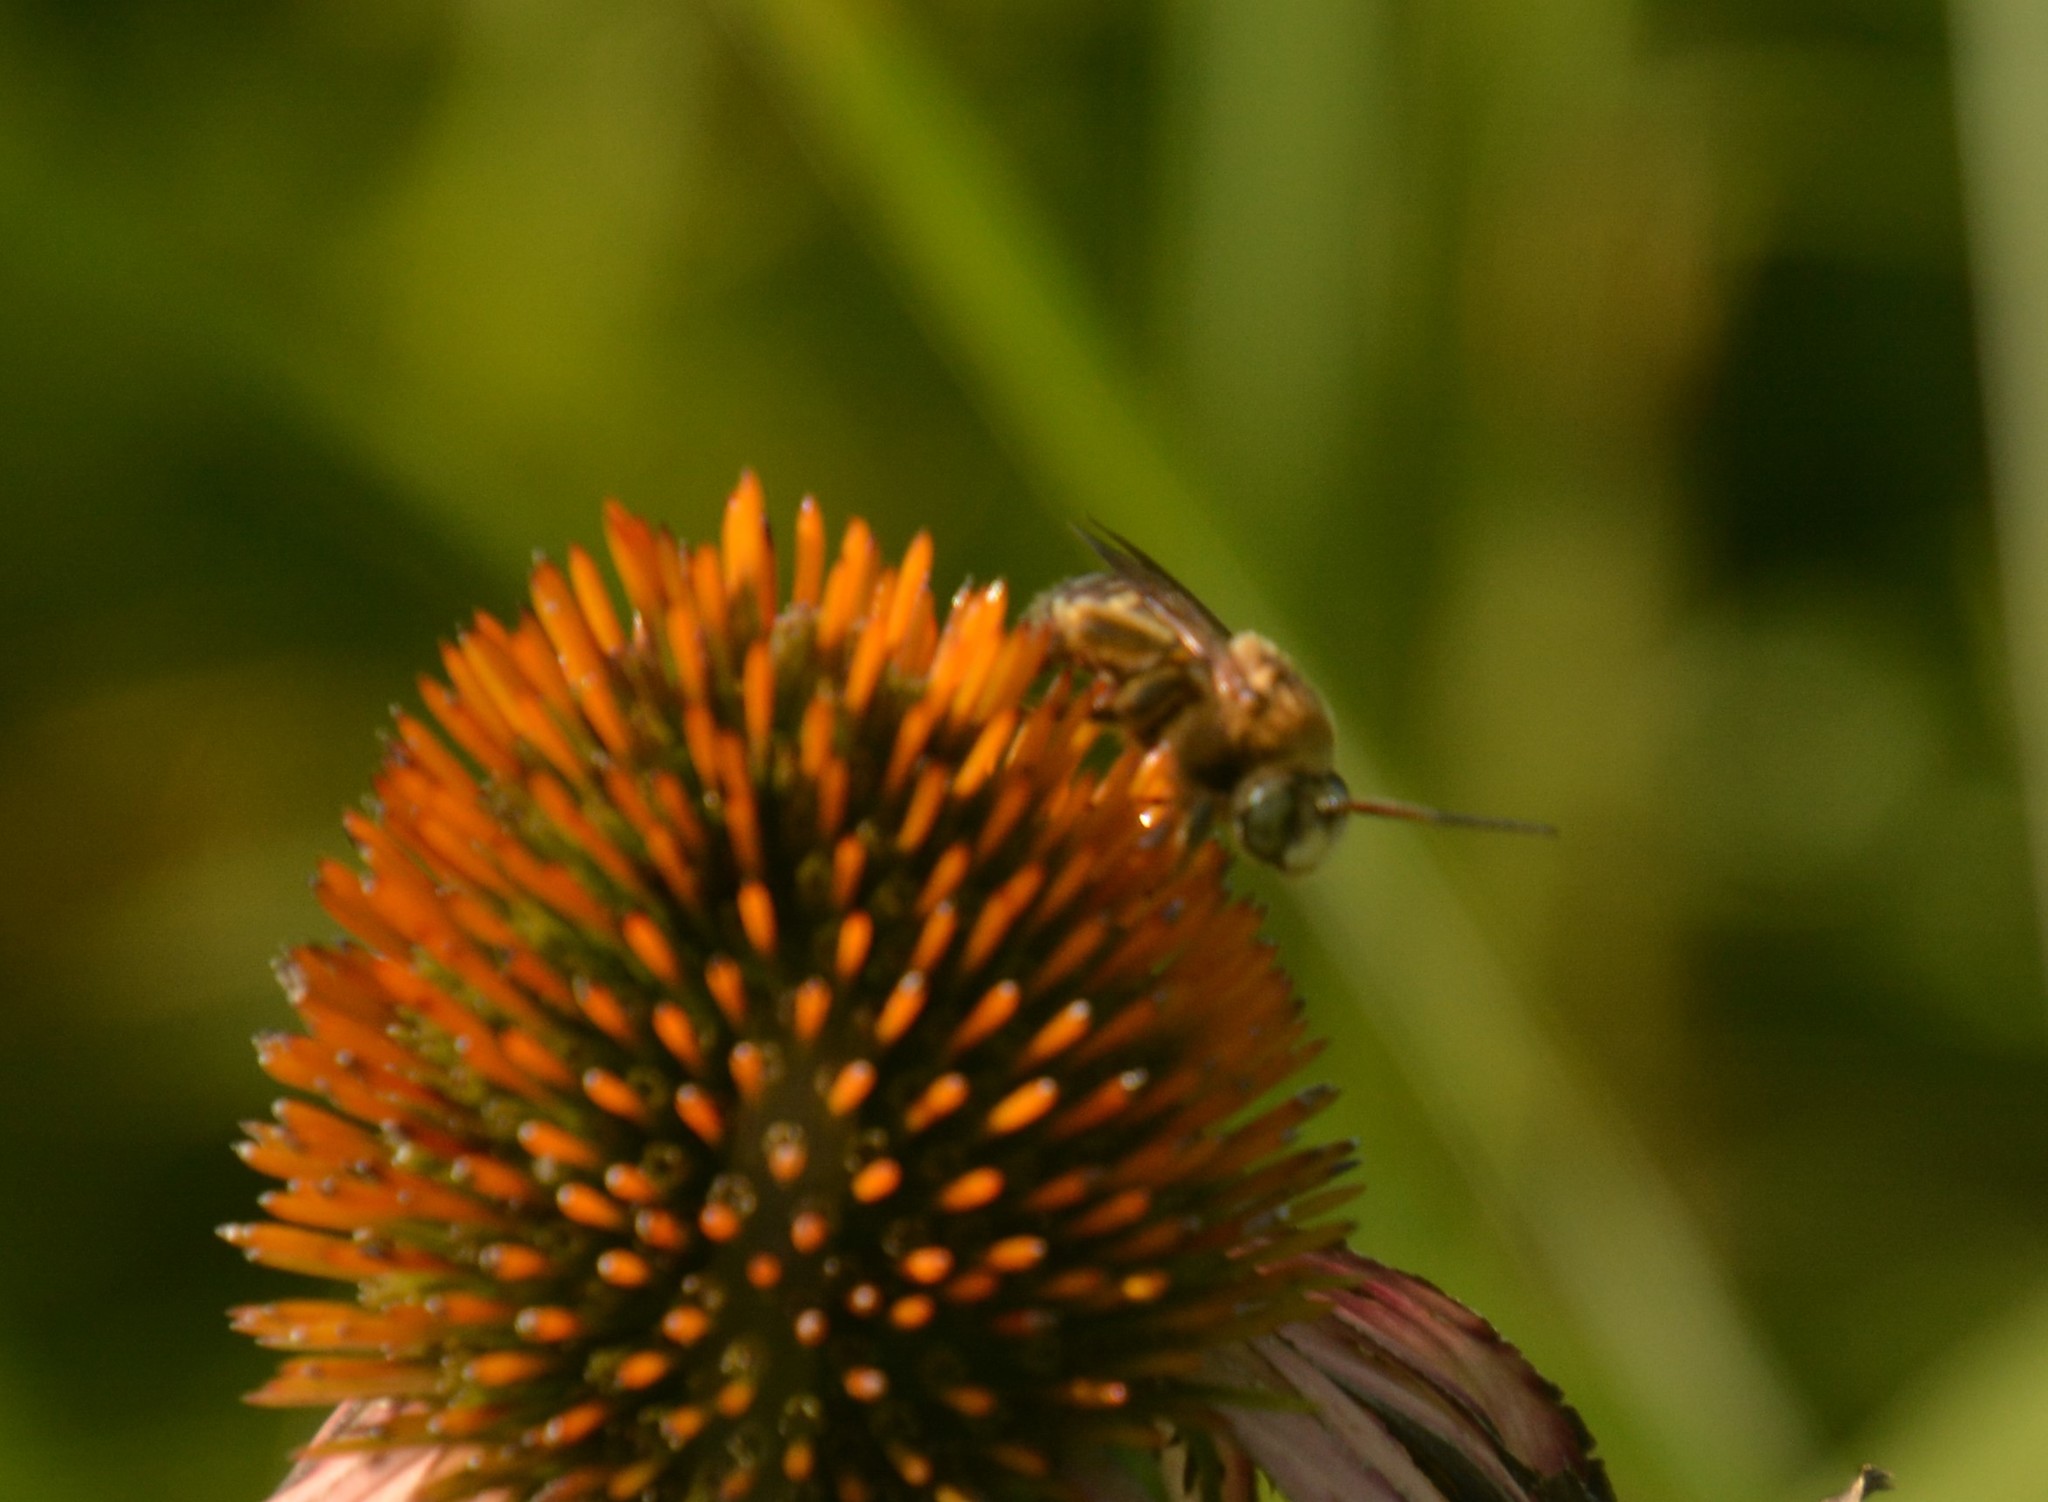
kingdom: Animalia
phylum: Arthropoda
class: Insecta
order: Hymenoptera
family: Apidae
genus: Svastra
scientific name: Svastra obliqua
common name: Oblique longhorn
